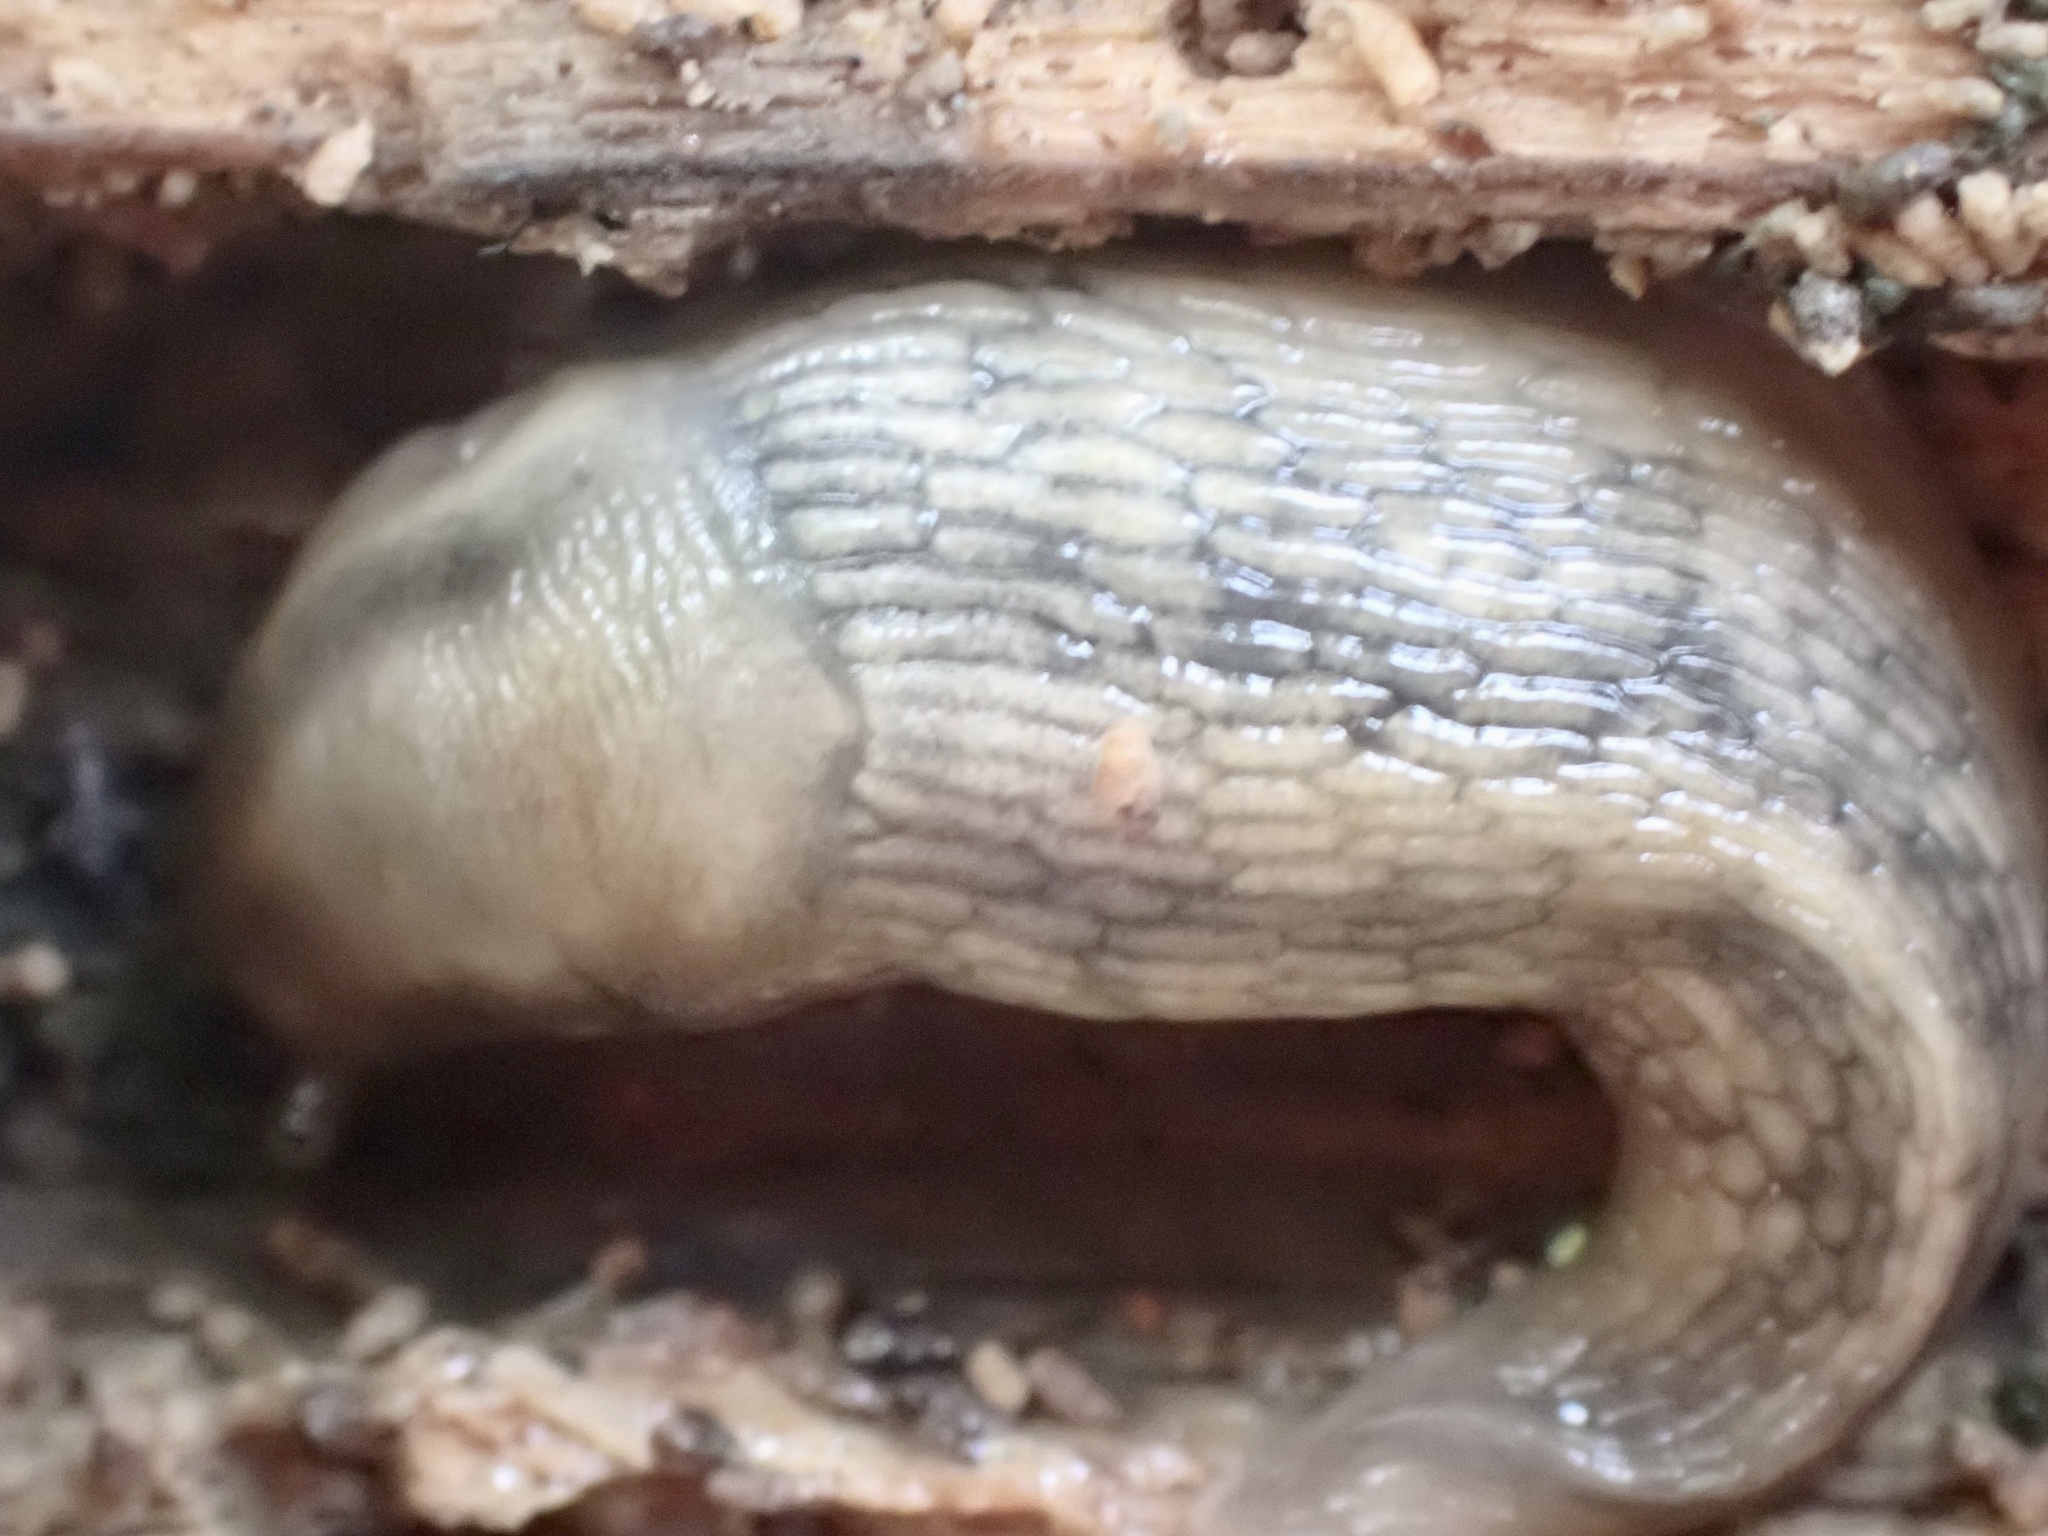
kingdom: Animalia
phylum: Mollusca
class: Gastropoda
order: Stylommatophora
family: Limacidae
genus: Lehmannia
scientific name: Lehmannia marginata
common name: Tree slug
